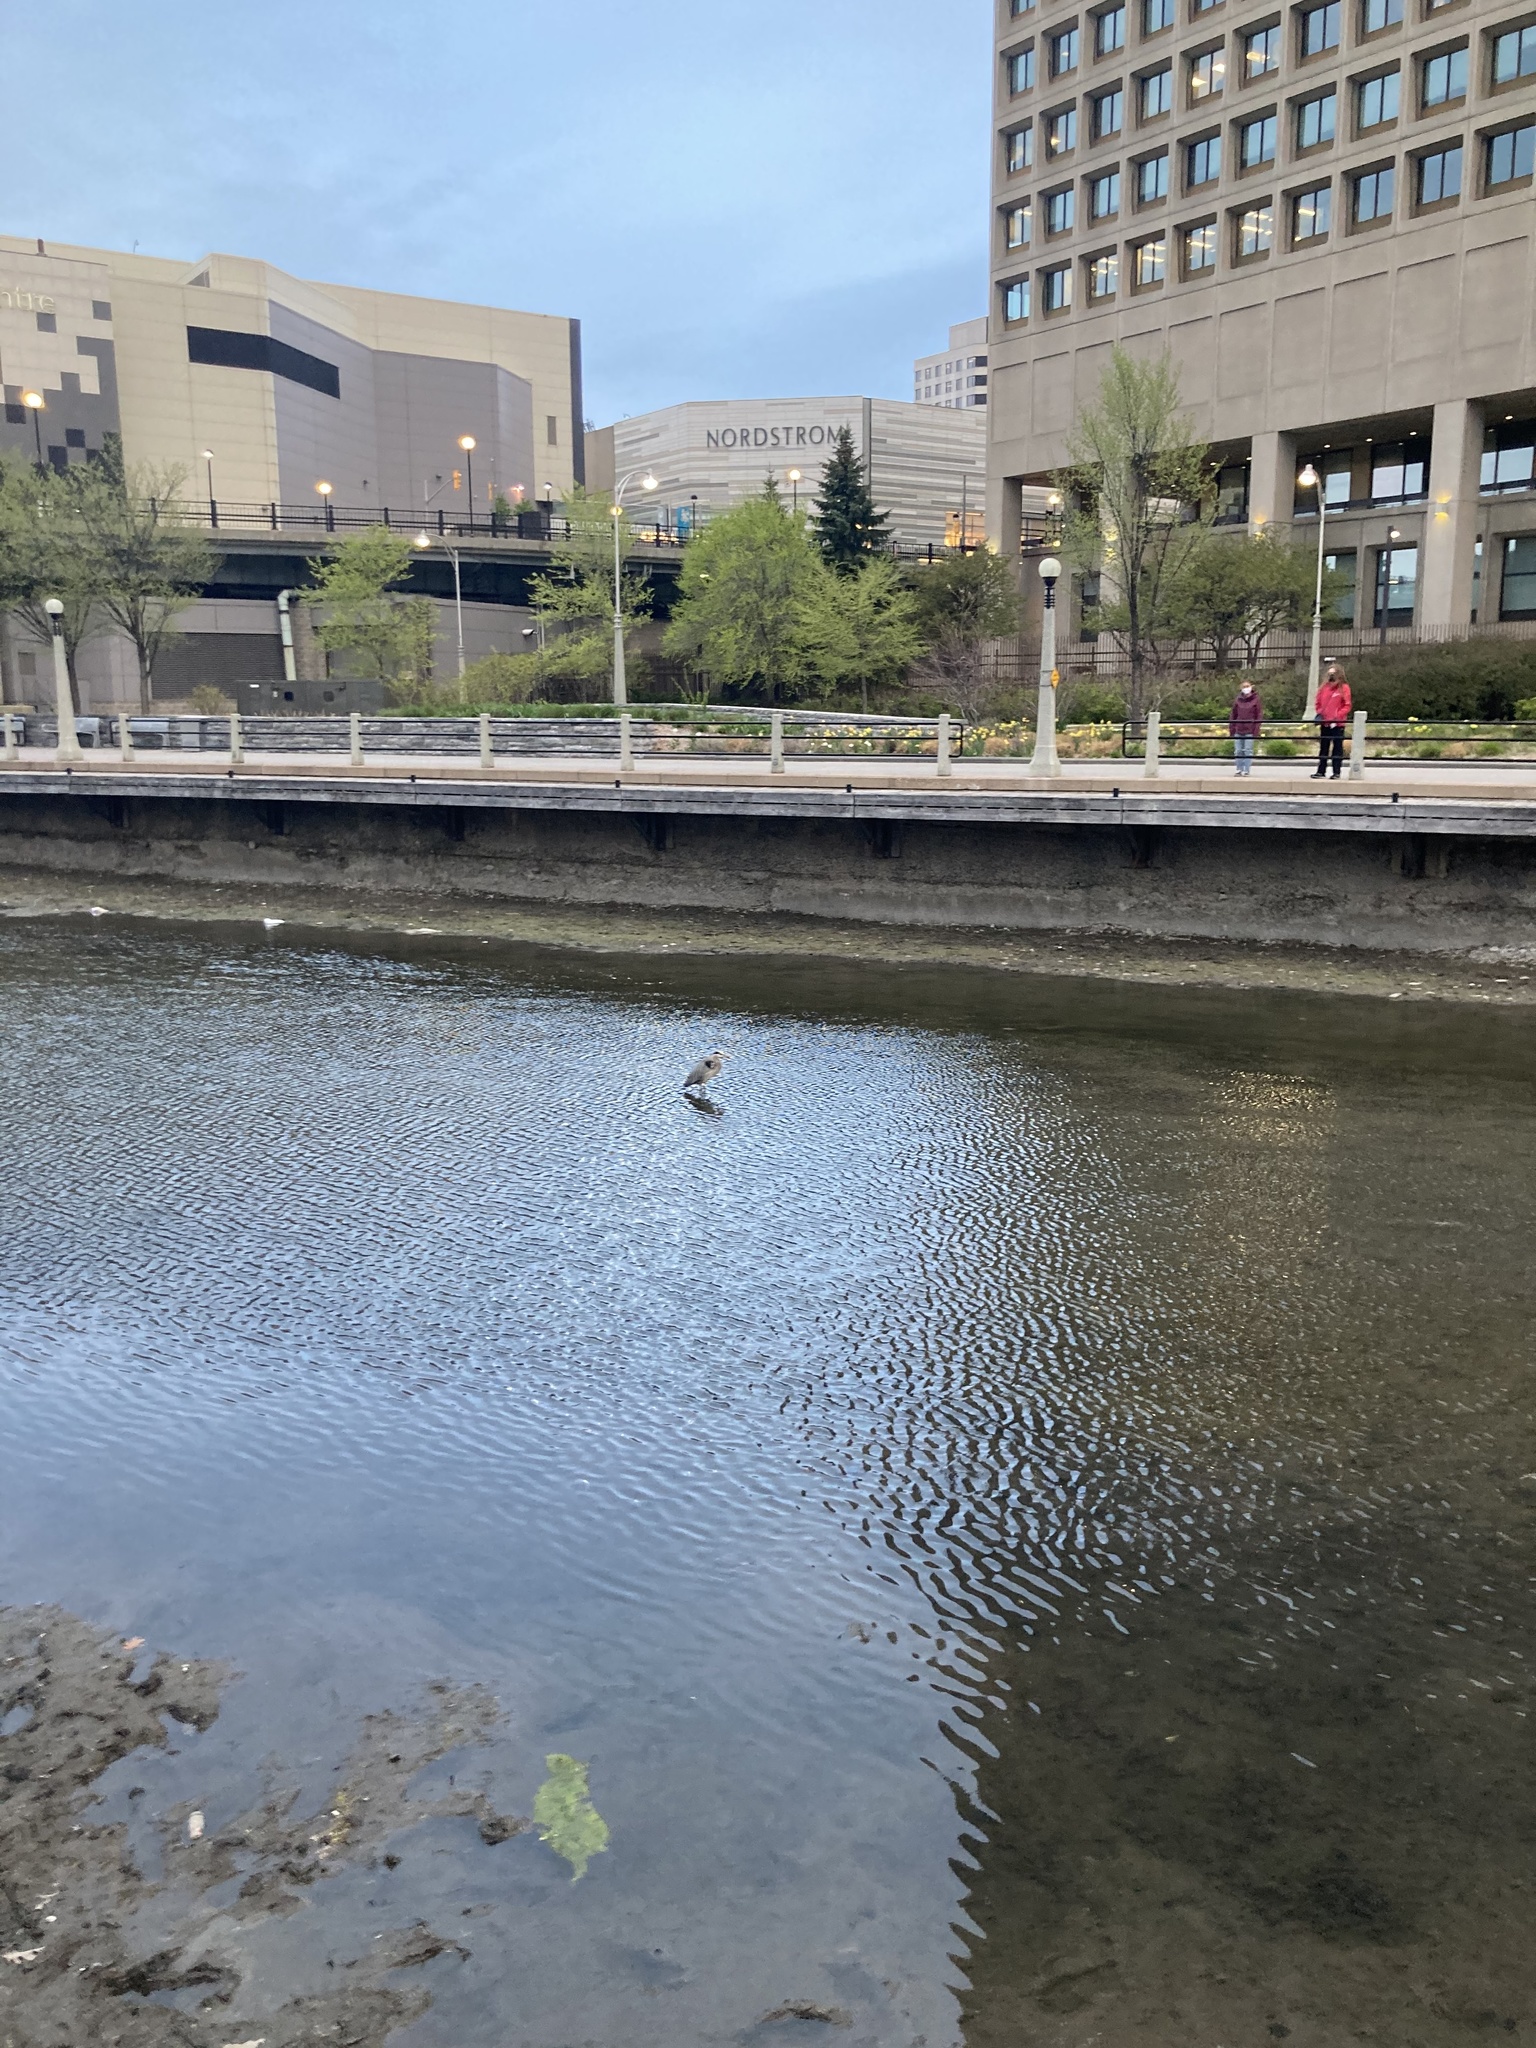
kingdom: Animalia
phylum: Chordata
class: Aves
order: Pelecaniformes
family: Ardeidae
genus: Ardea
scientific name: Ardea herodias
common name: Great blue heron
